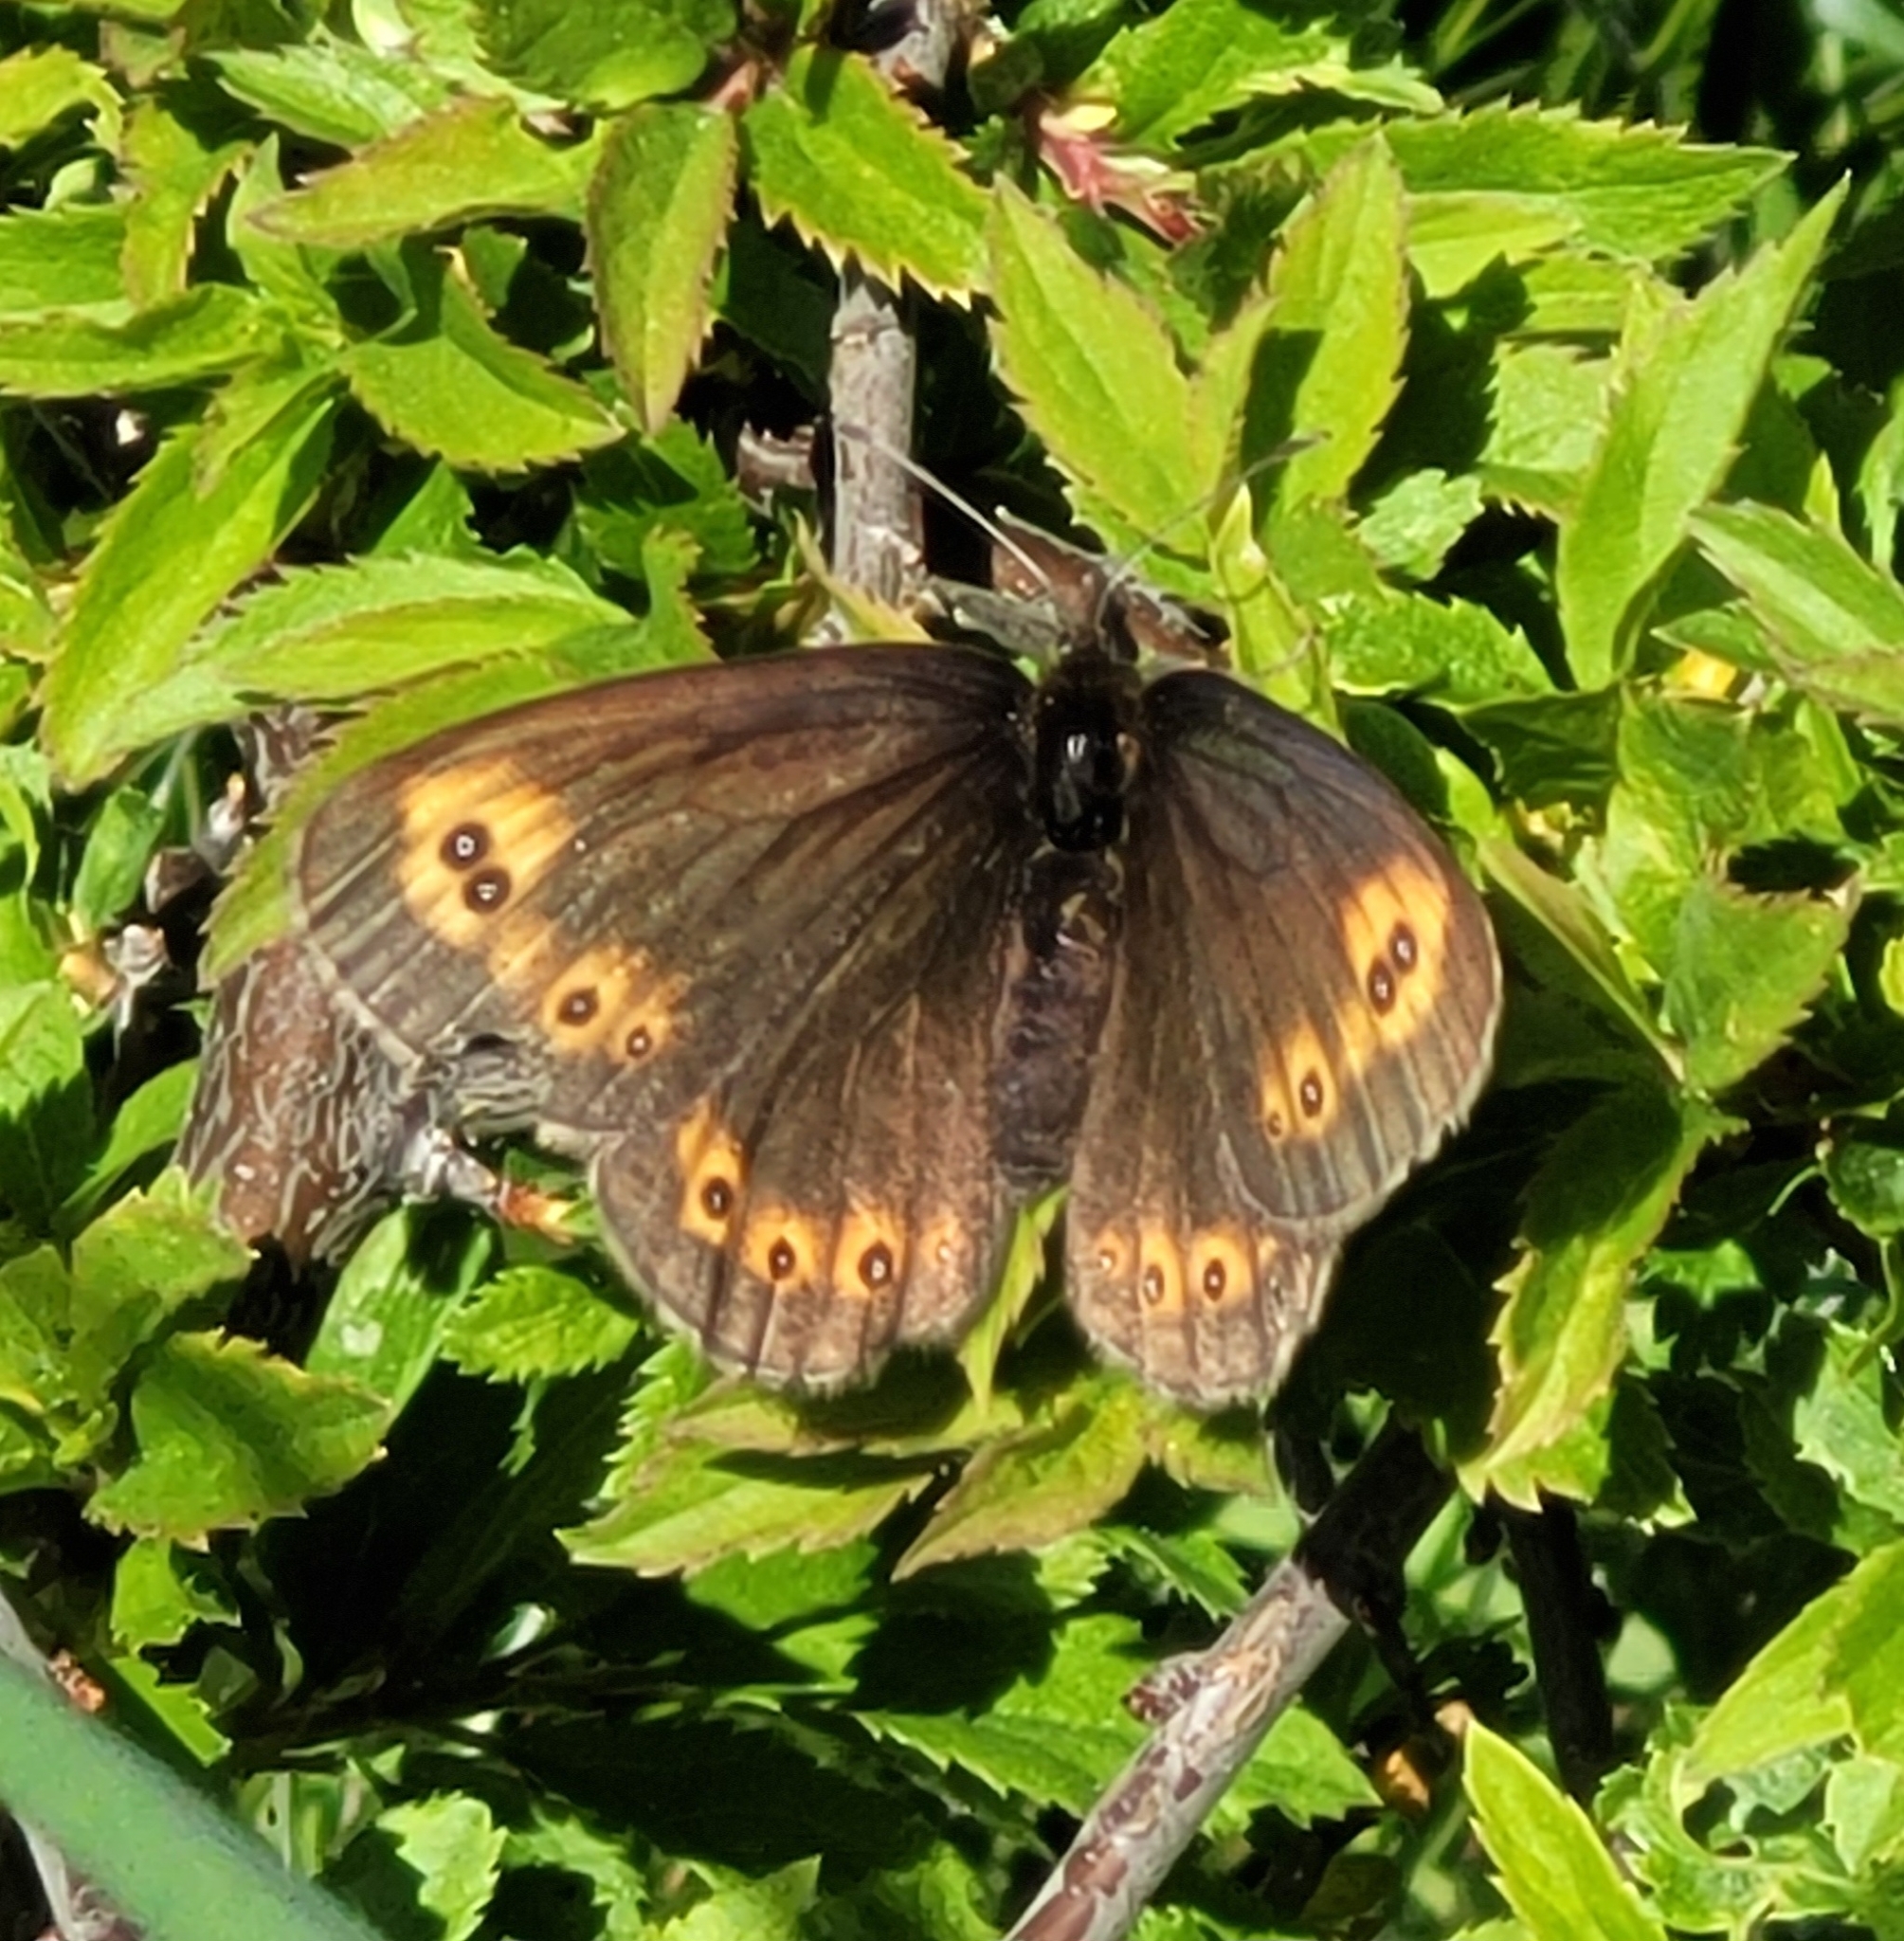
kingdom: Animalia
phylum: Arthropoda
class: Insecta
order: Lepidoptera
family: Nymphalidae
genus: Erebia
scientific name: Erebia medusa
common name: Woodland ringlet
